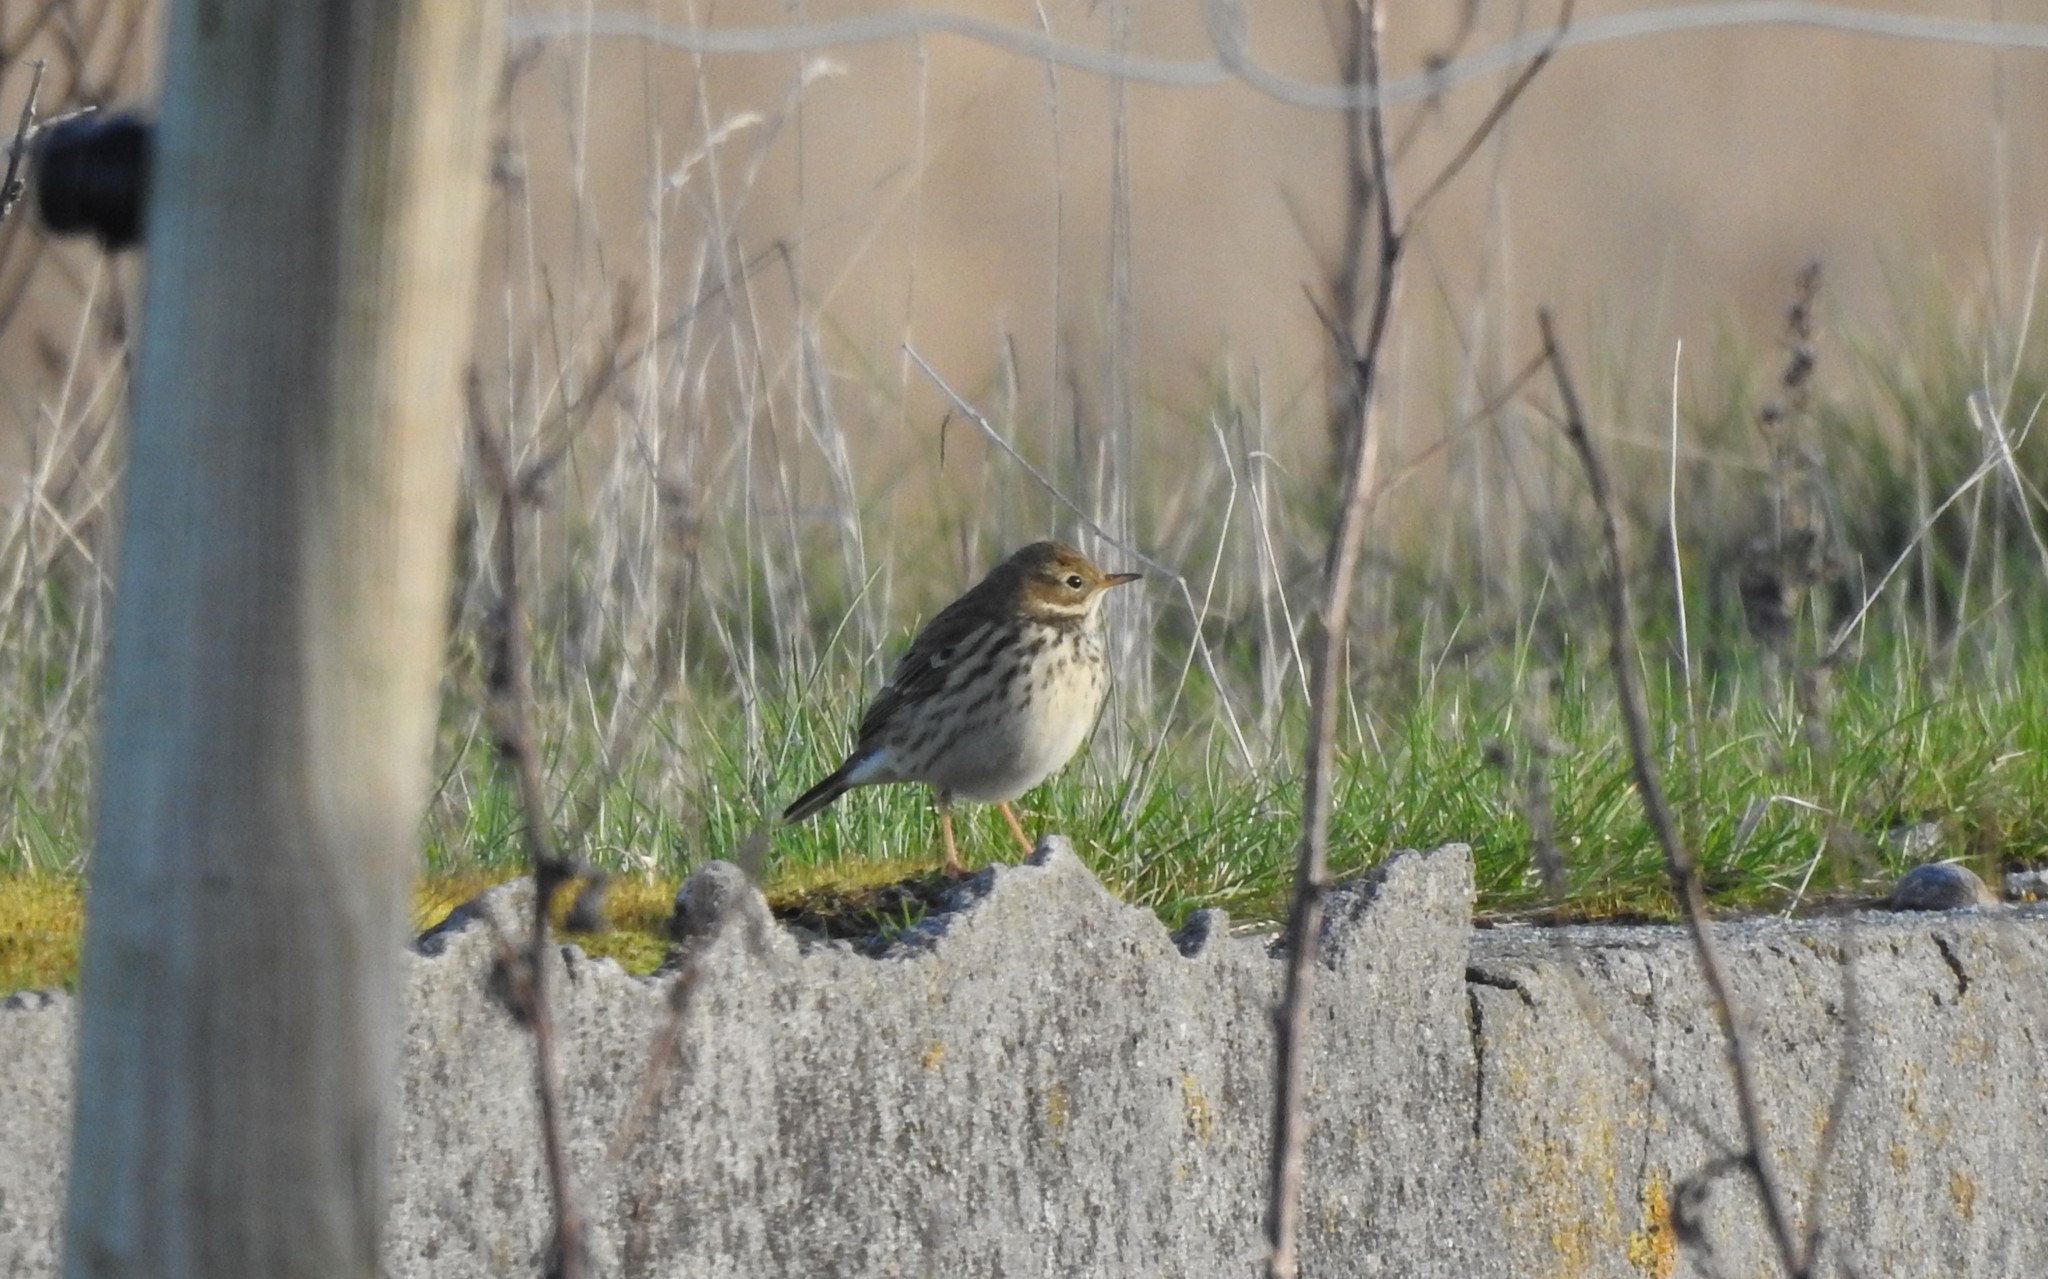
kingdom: Animalia
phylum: Chordata
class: Aves
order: Passeriformes
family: Motacillidae
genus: Anthus
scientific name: Anthus pratensis
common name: Meadow pipit
